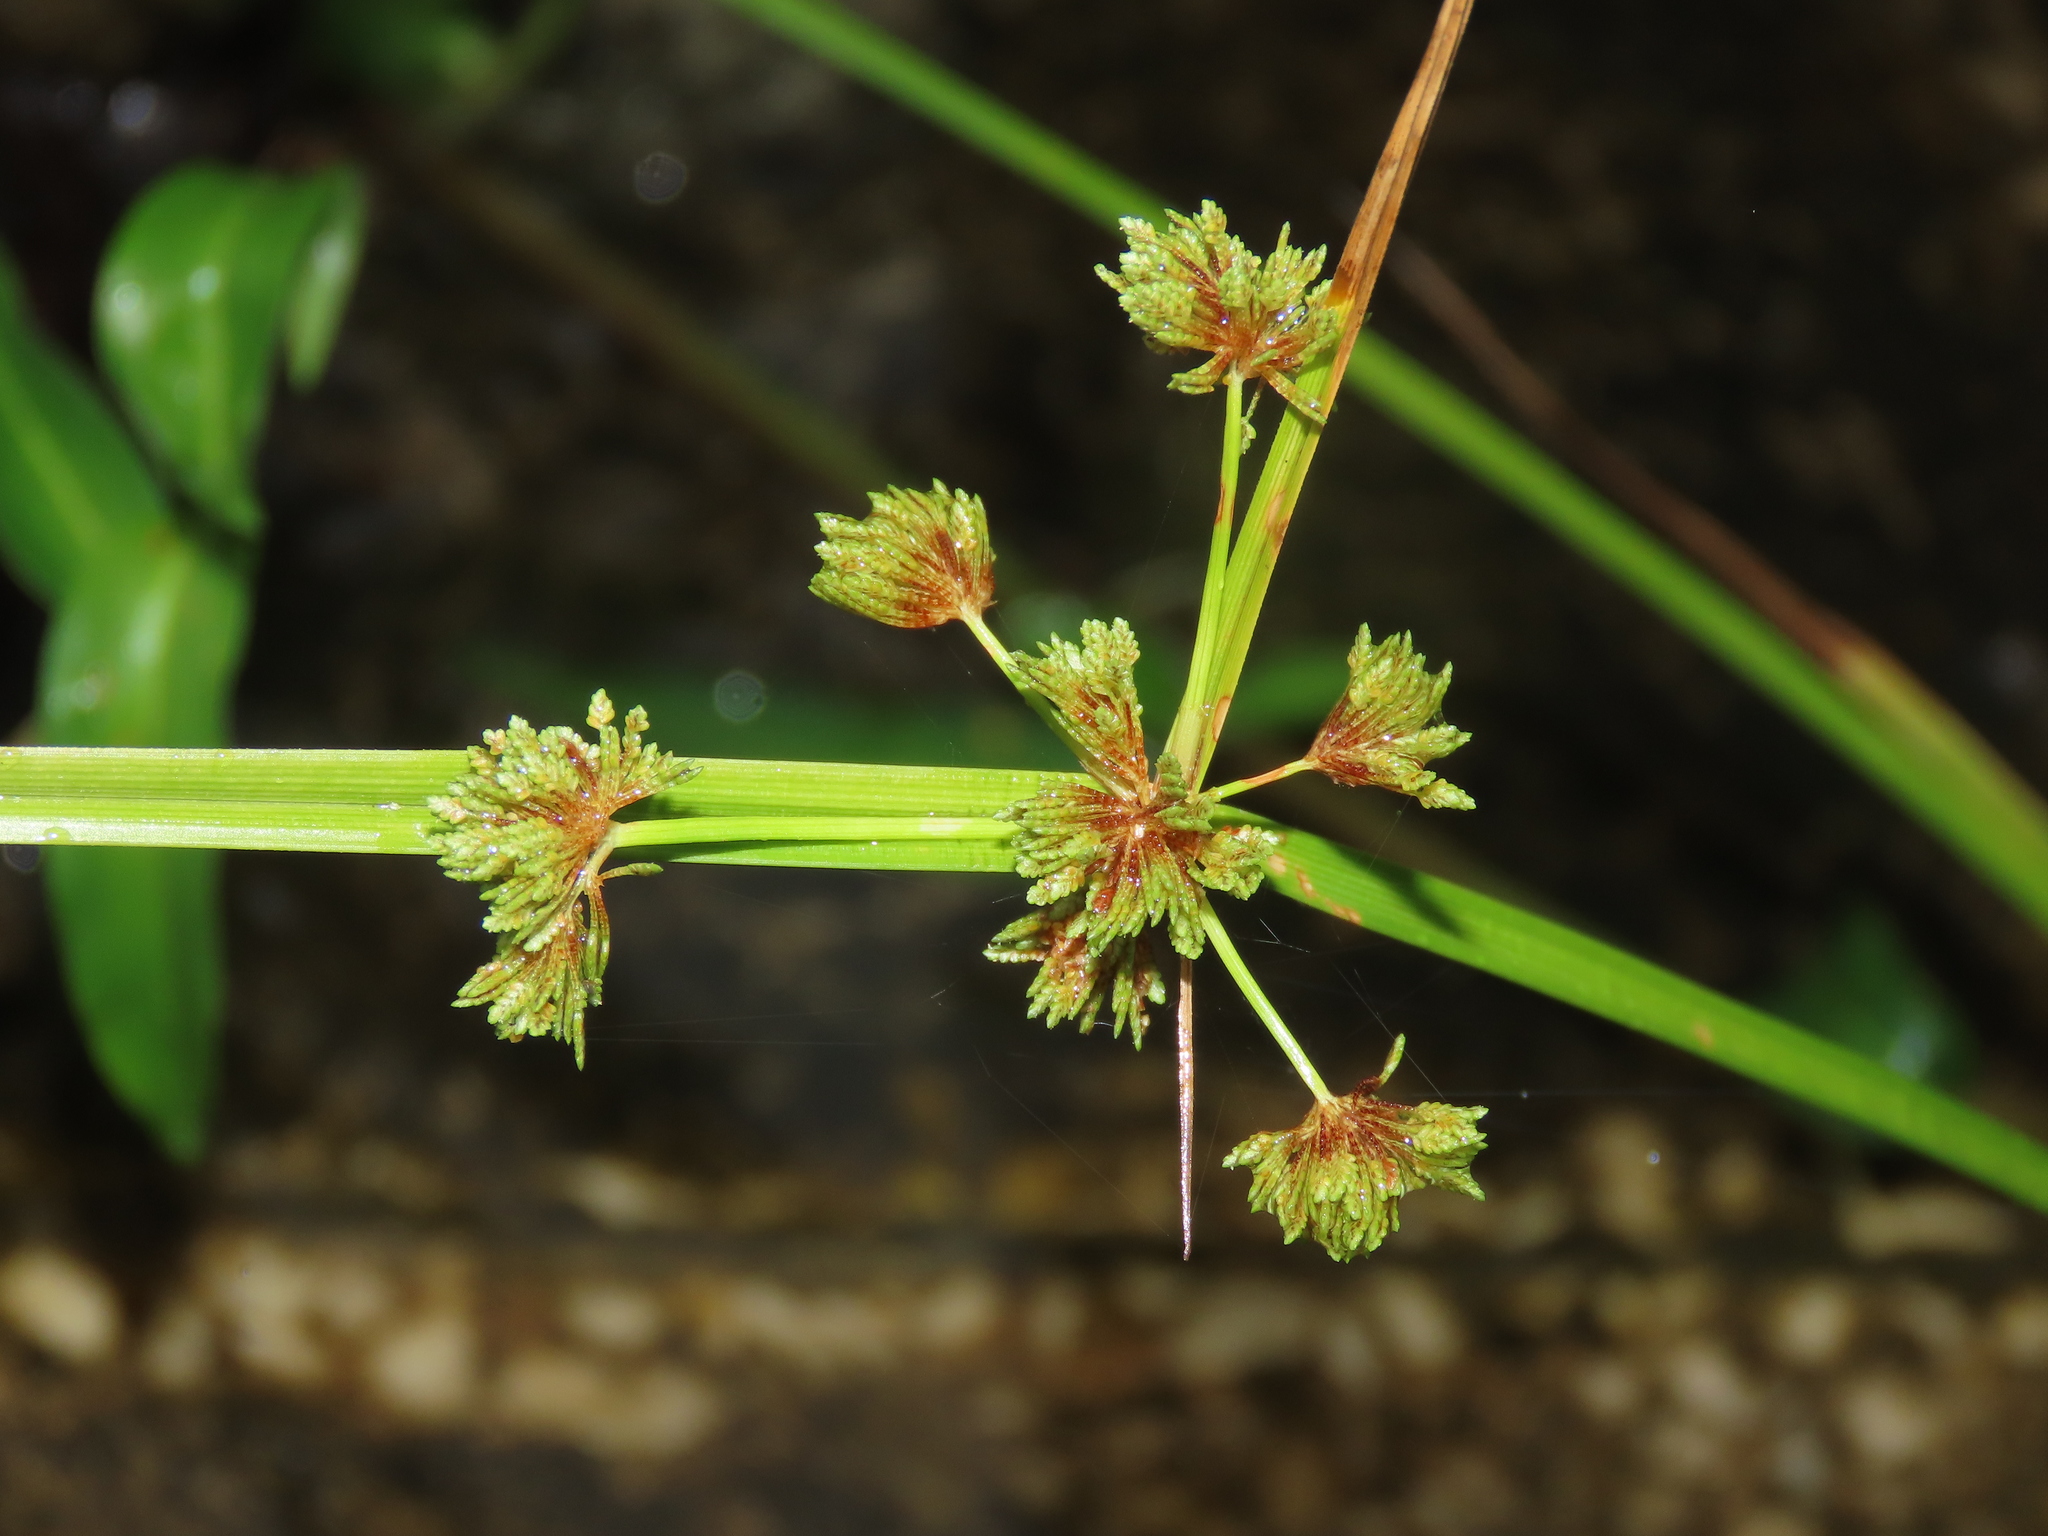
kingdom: Plantae
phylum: Tracheophyta
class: Liliopsida
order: Poales
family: Cyperaceae
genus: Cyperus
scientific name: Cyperus difformis
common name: Variable flatsedge
